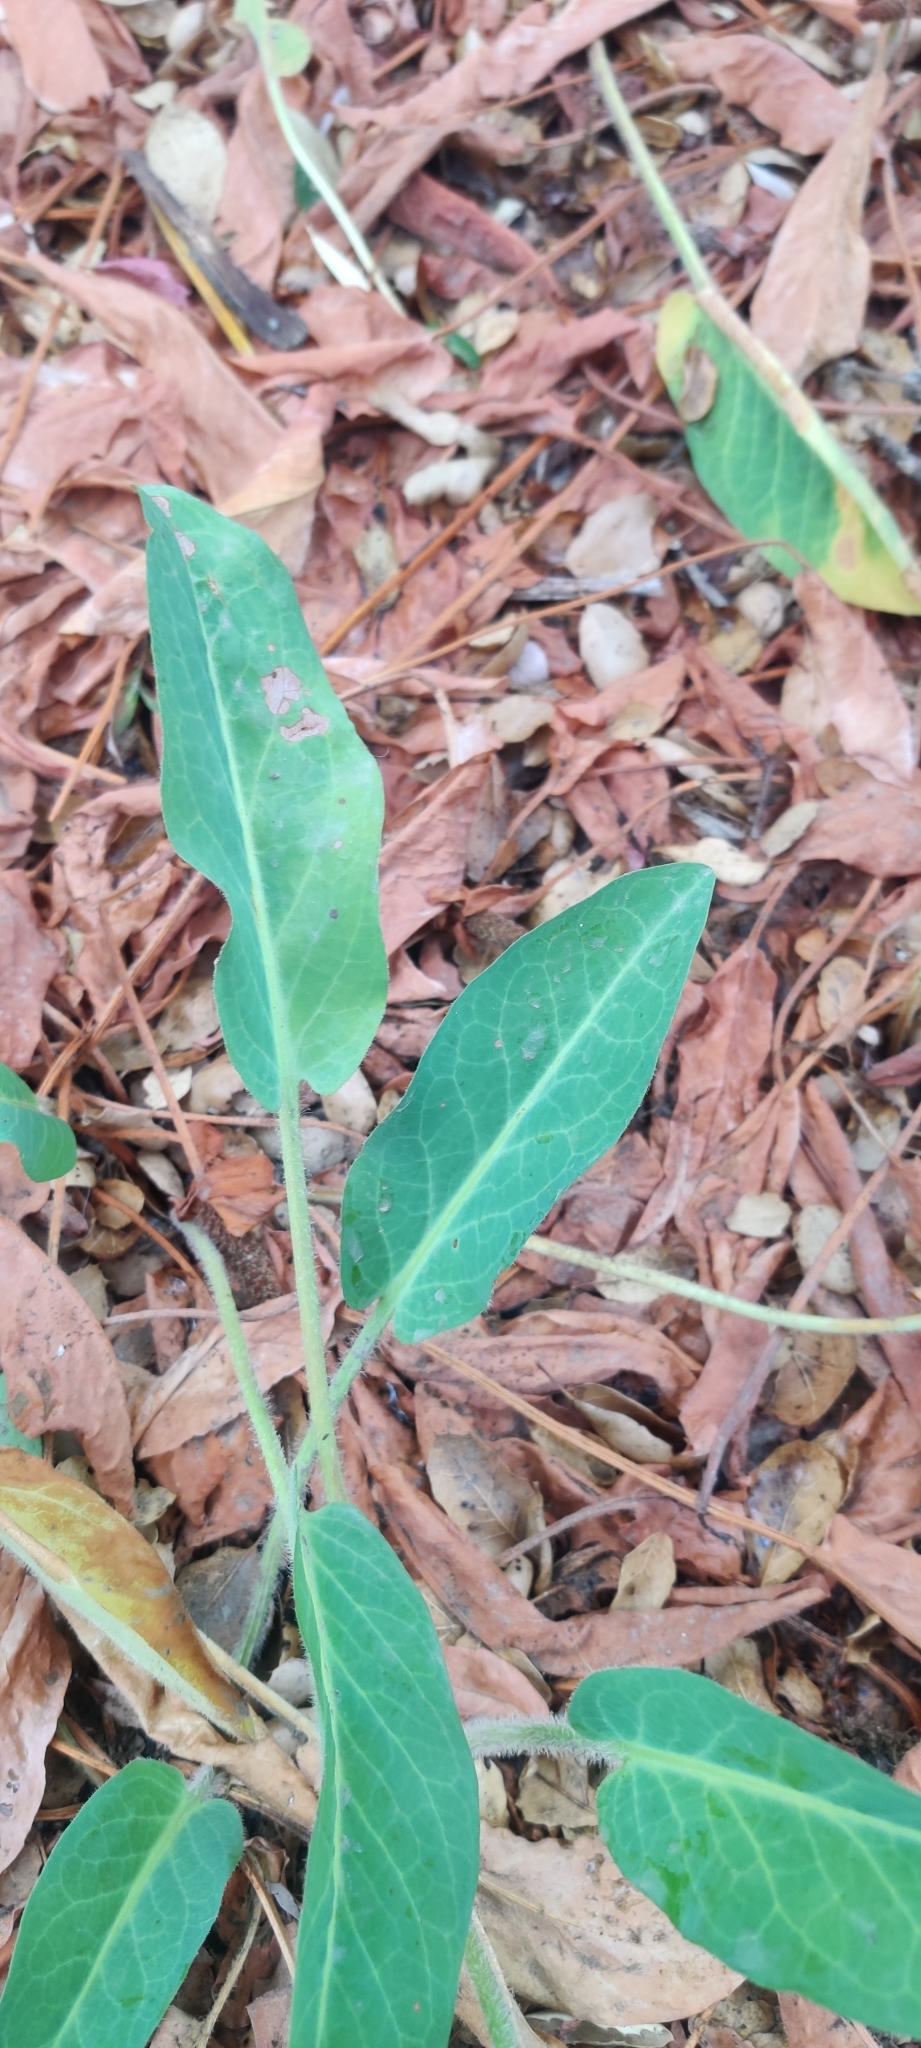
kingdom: Plantae
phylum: Tracheophyta
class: Magnoliopsida
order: Piperales
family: Saururaceae
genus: Anemopsis
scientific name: Anemopsis californica
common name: Apache-beads
